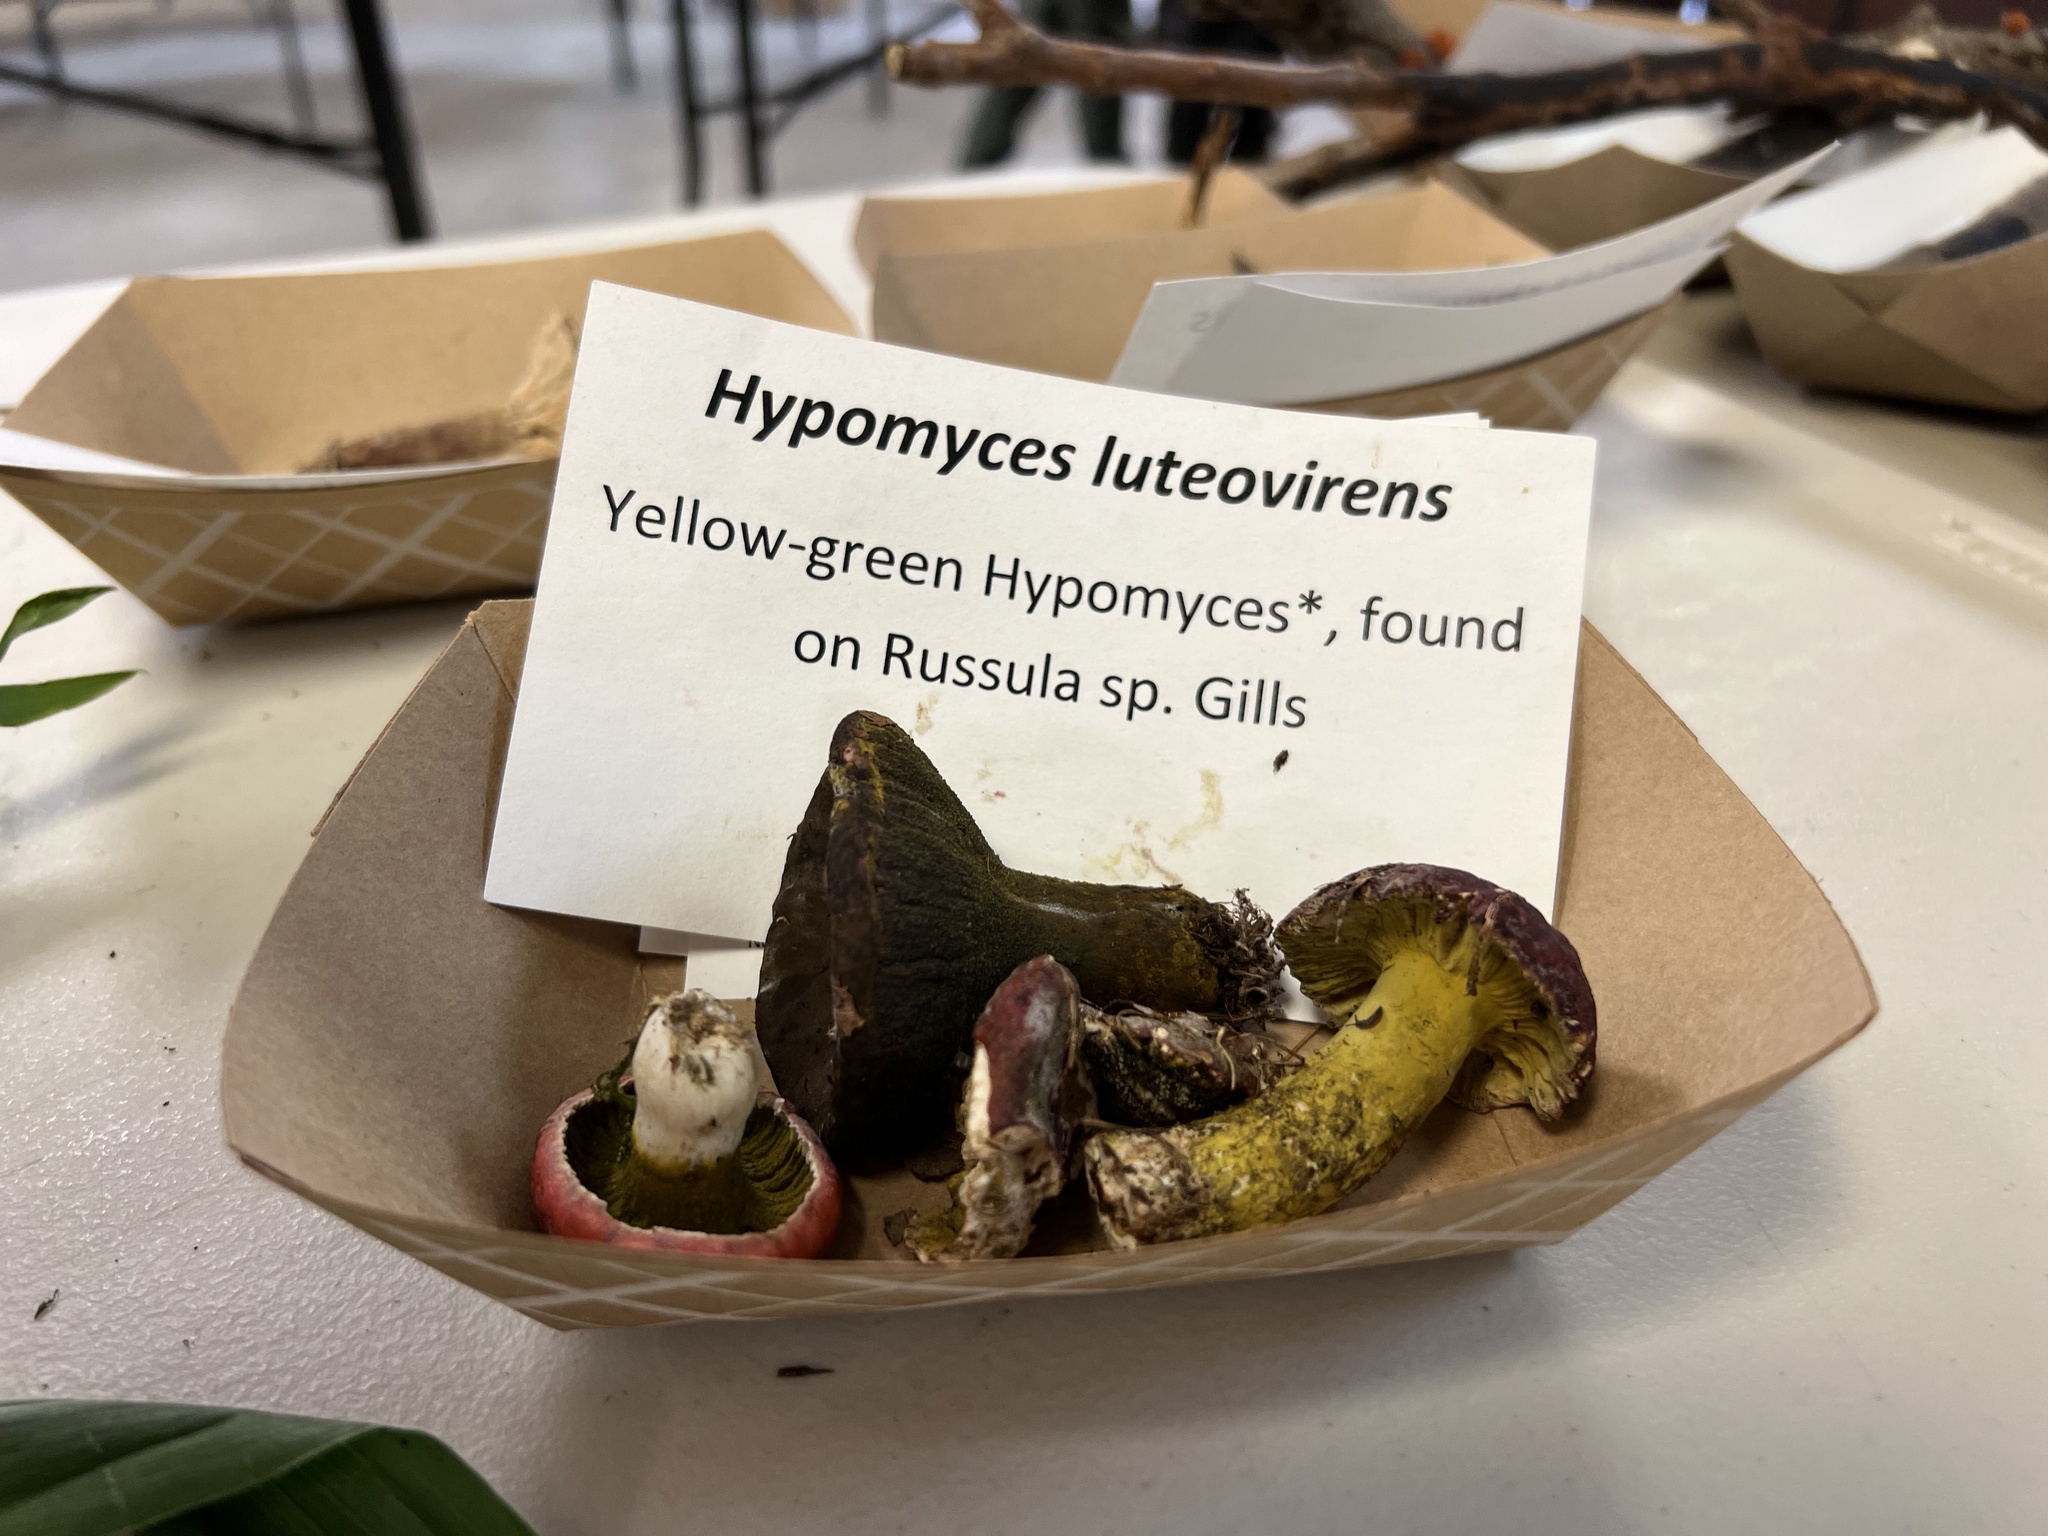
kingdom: Fungi
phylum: Ascomycota
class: Sordariomycetes
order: Hypocreales
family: Hypocreaceae
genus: Hypomyces
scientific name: Hypomyces luteovirens
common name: Yellow-green russula mold
